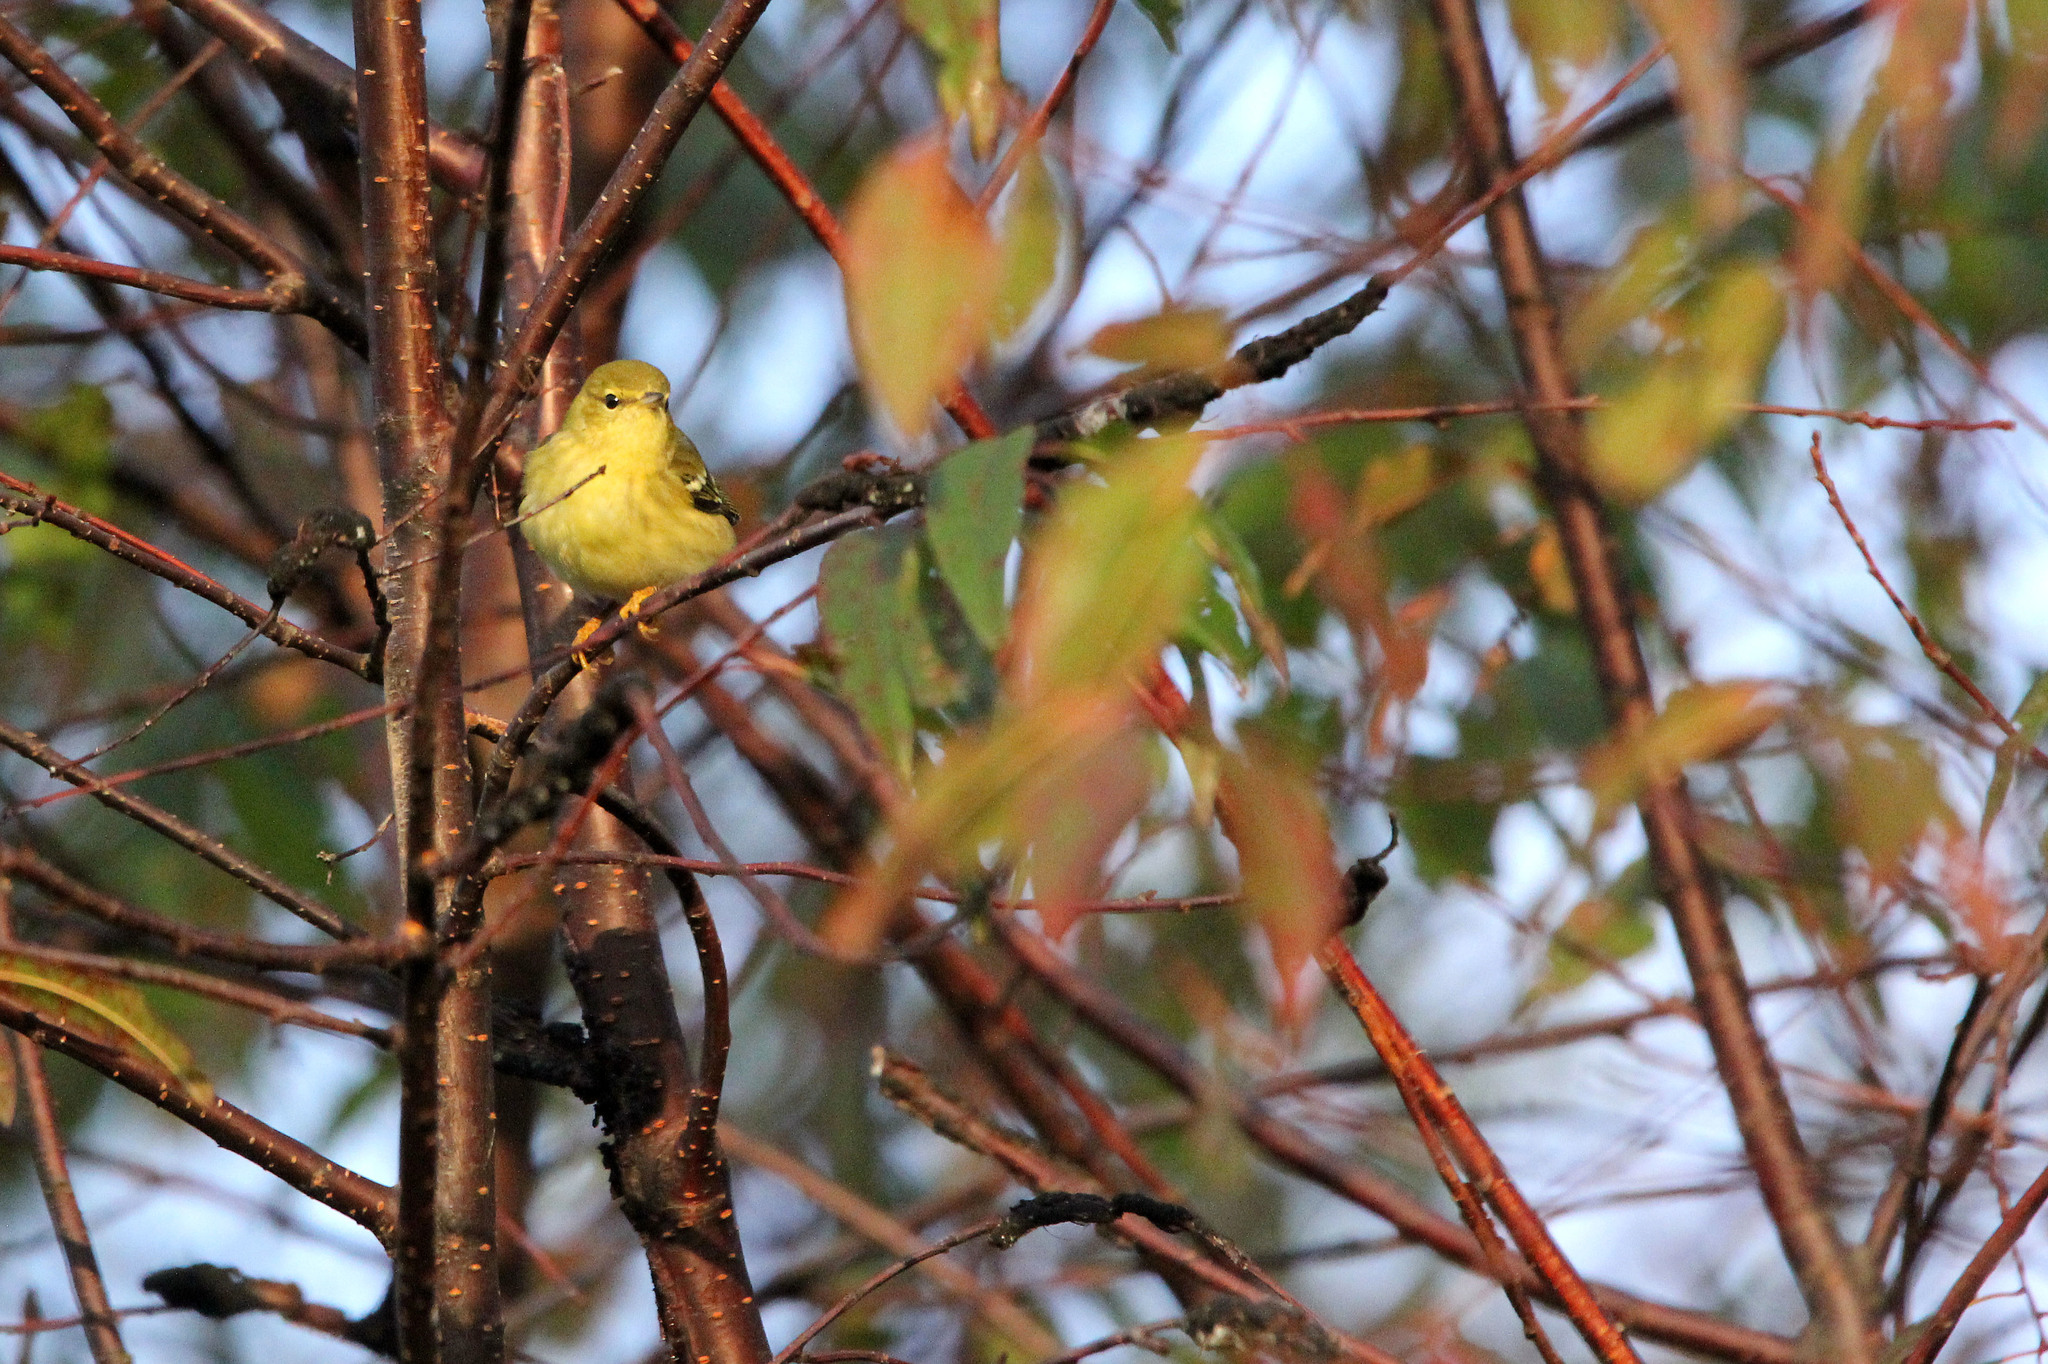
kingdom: Animalia
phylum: Chordata
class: Aves
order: Passeriformes
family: Parulidae
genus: Setophaga
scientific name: Setophaga striata
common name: Blackpoll warbler
